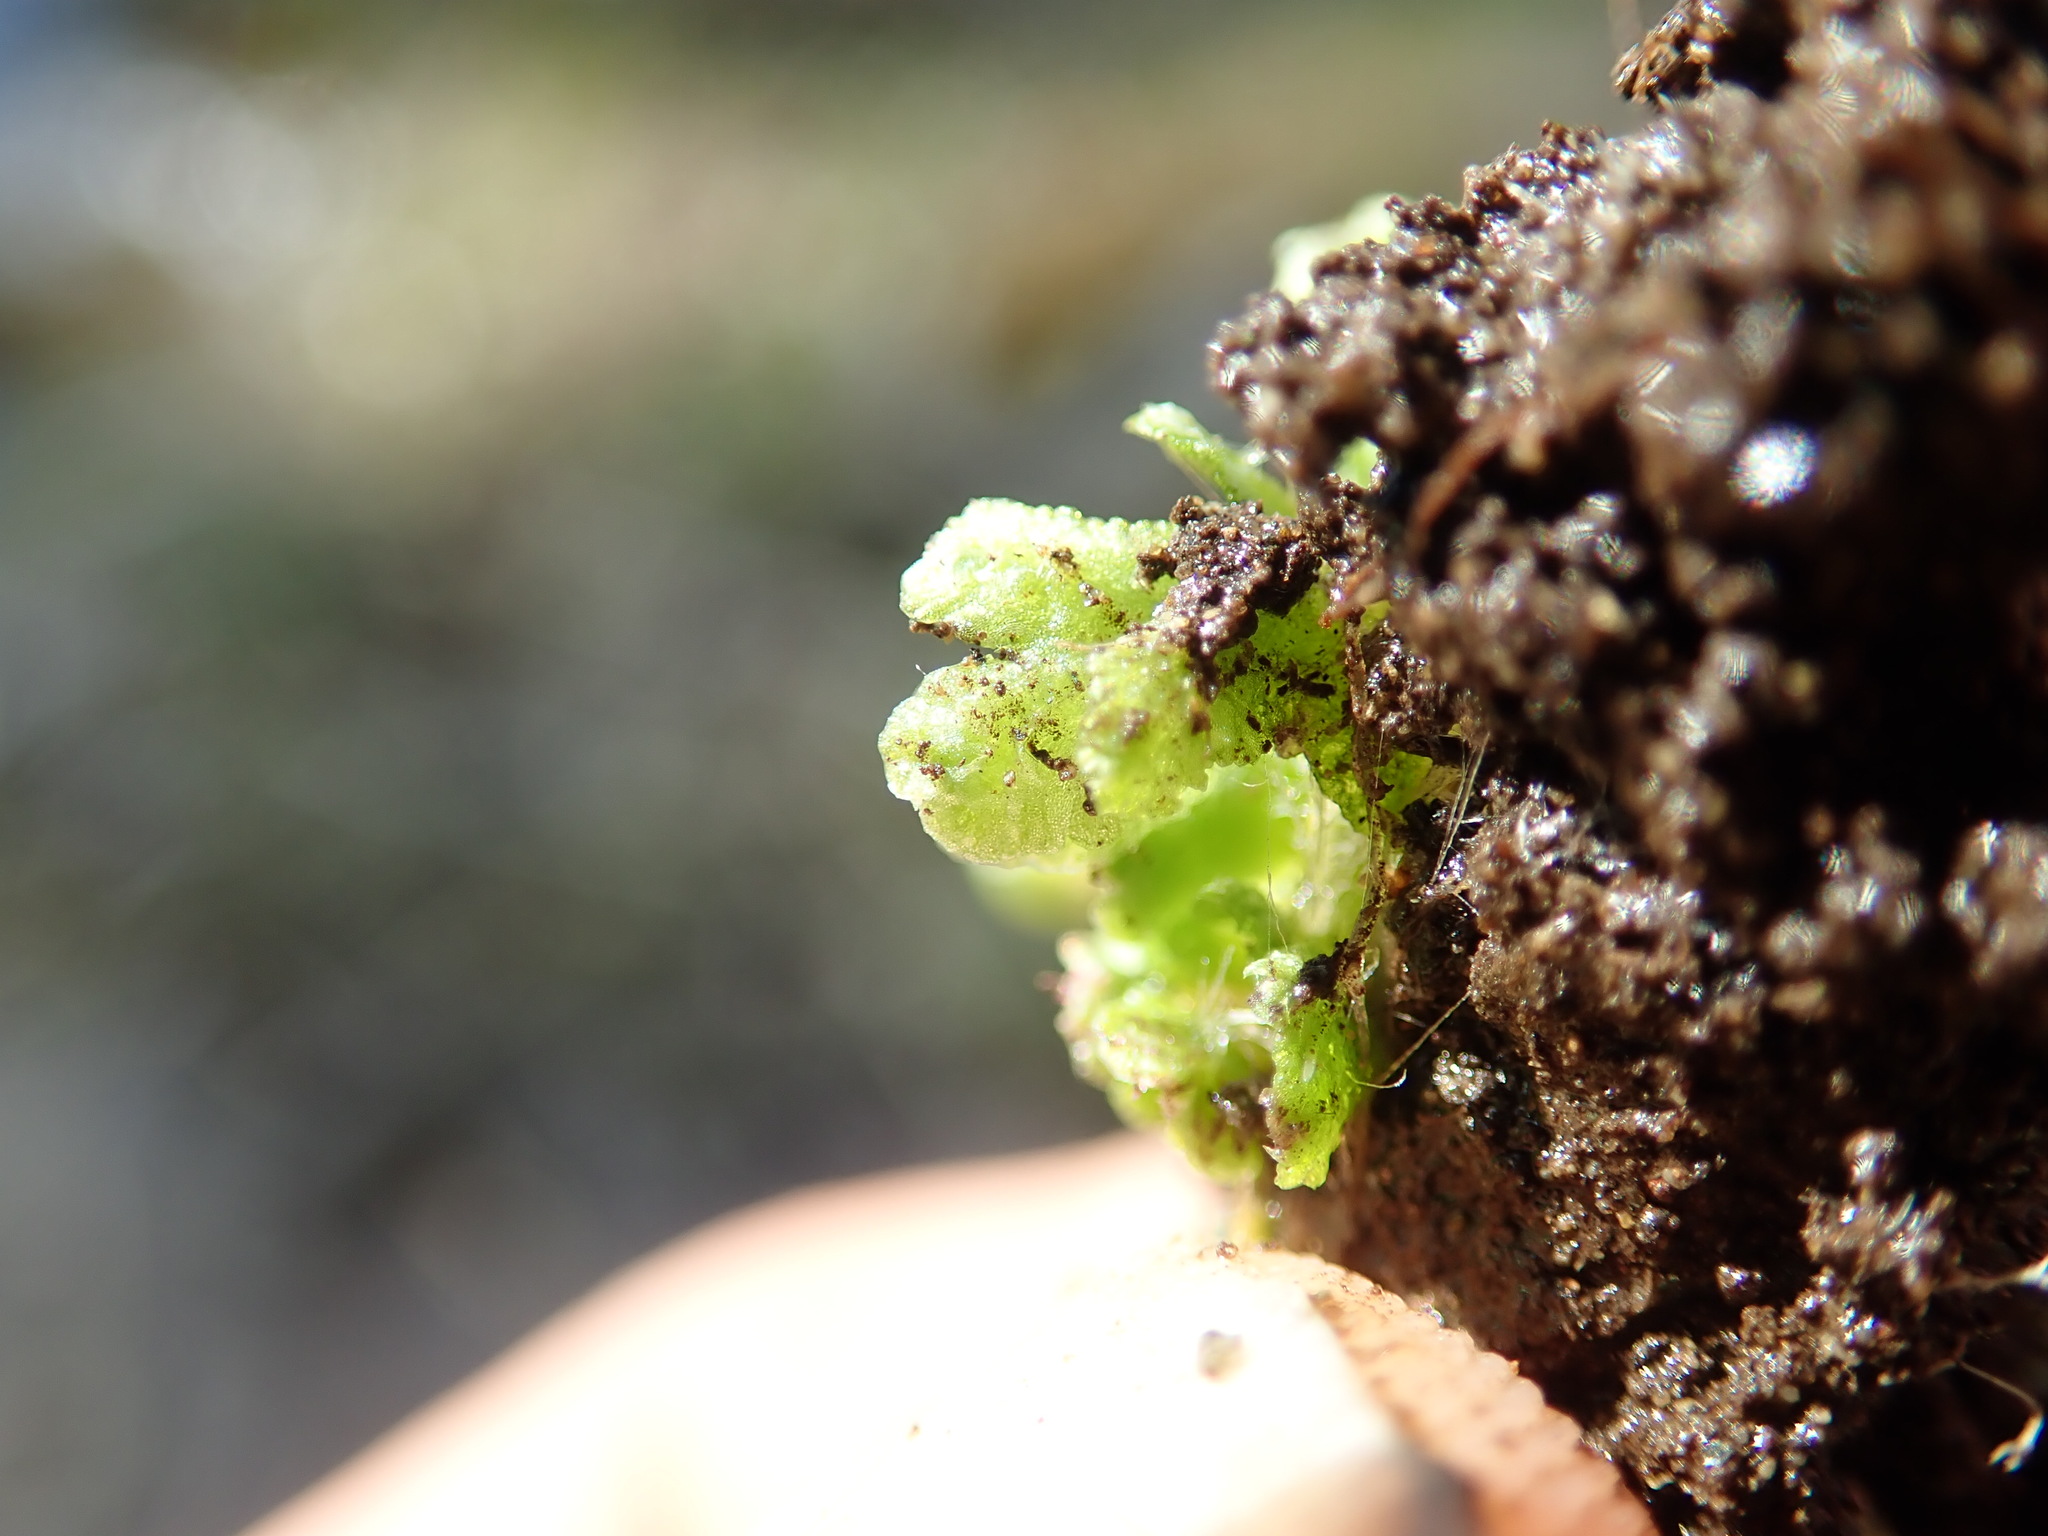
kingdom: Plantae
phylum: Marchantiophyta
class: Marchantiopsida
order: Marchantiales
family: Aytoniaceae
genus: Mannia
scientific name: Mannia gracilis
